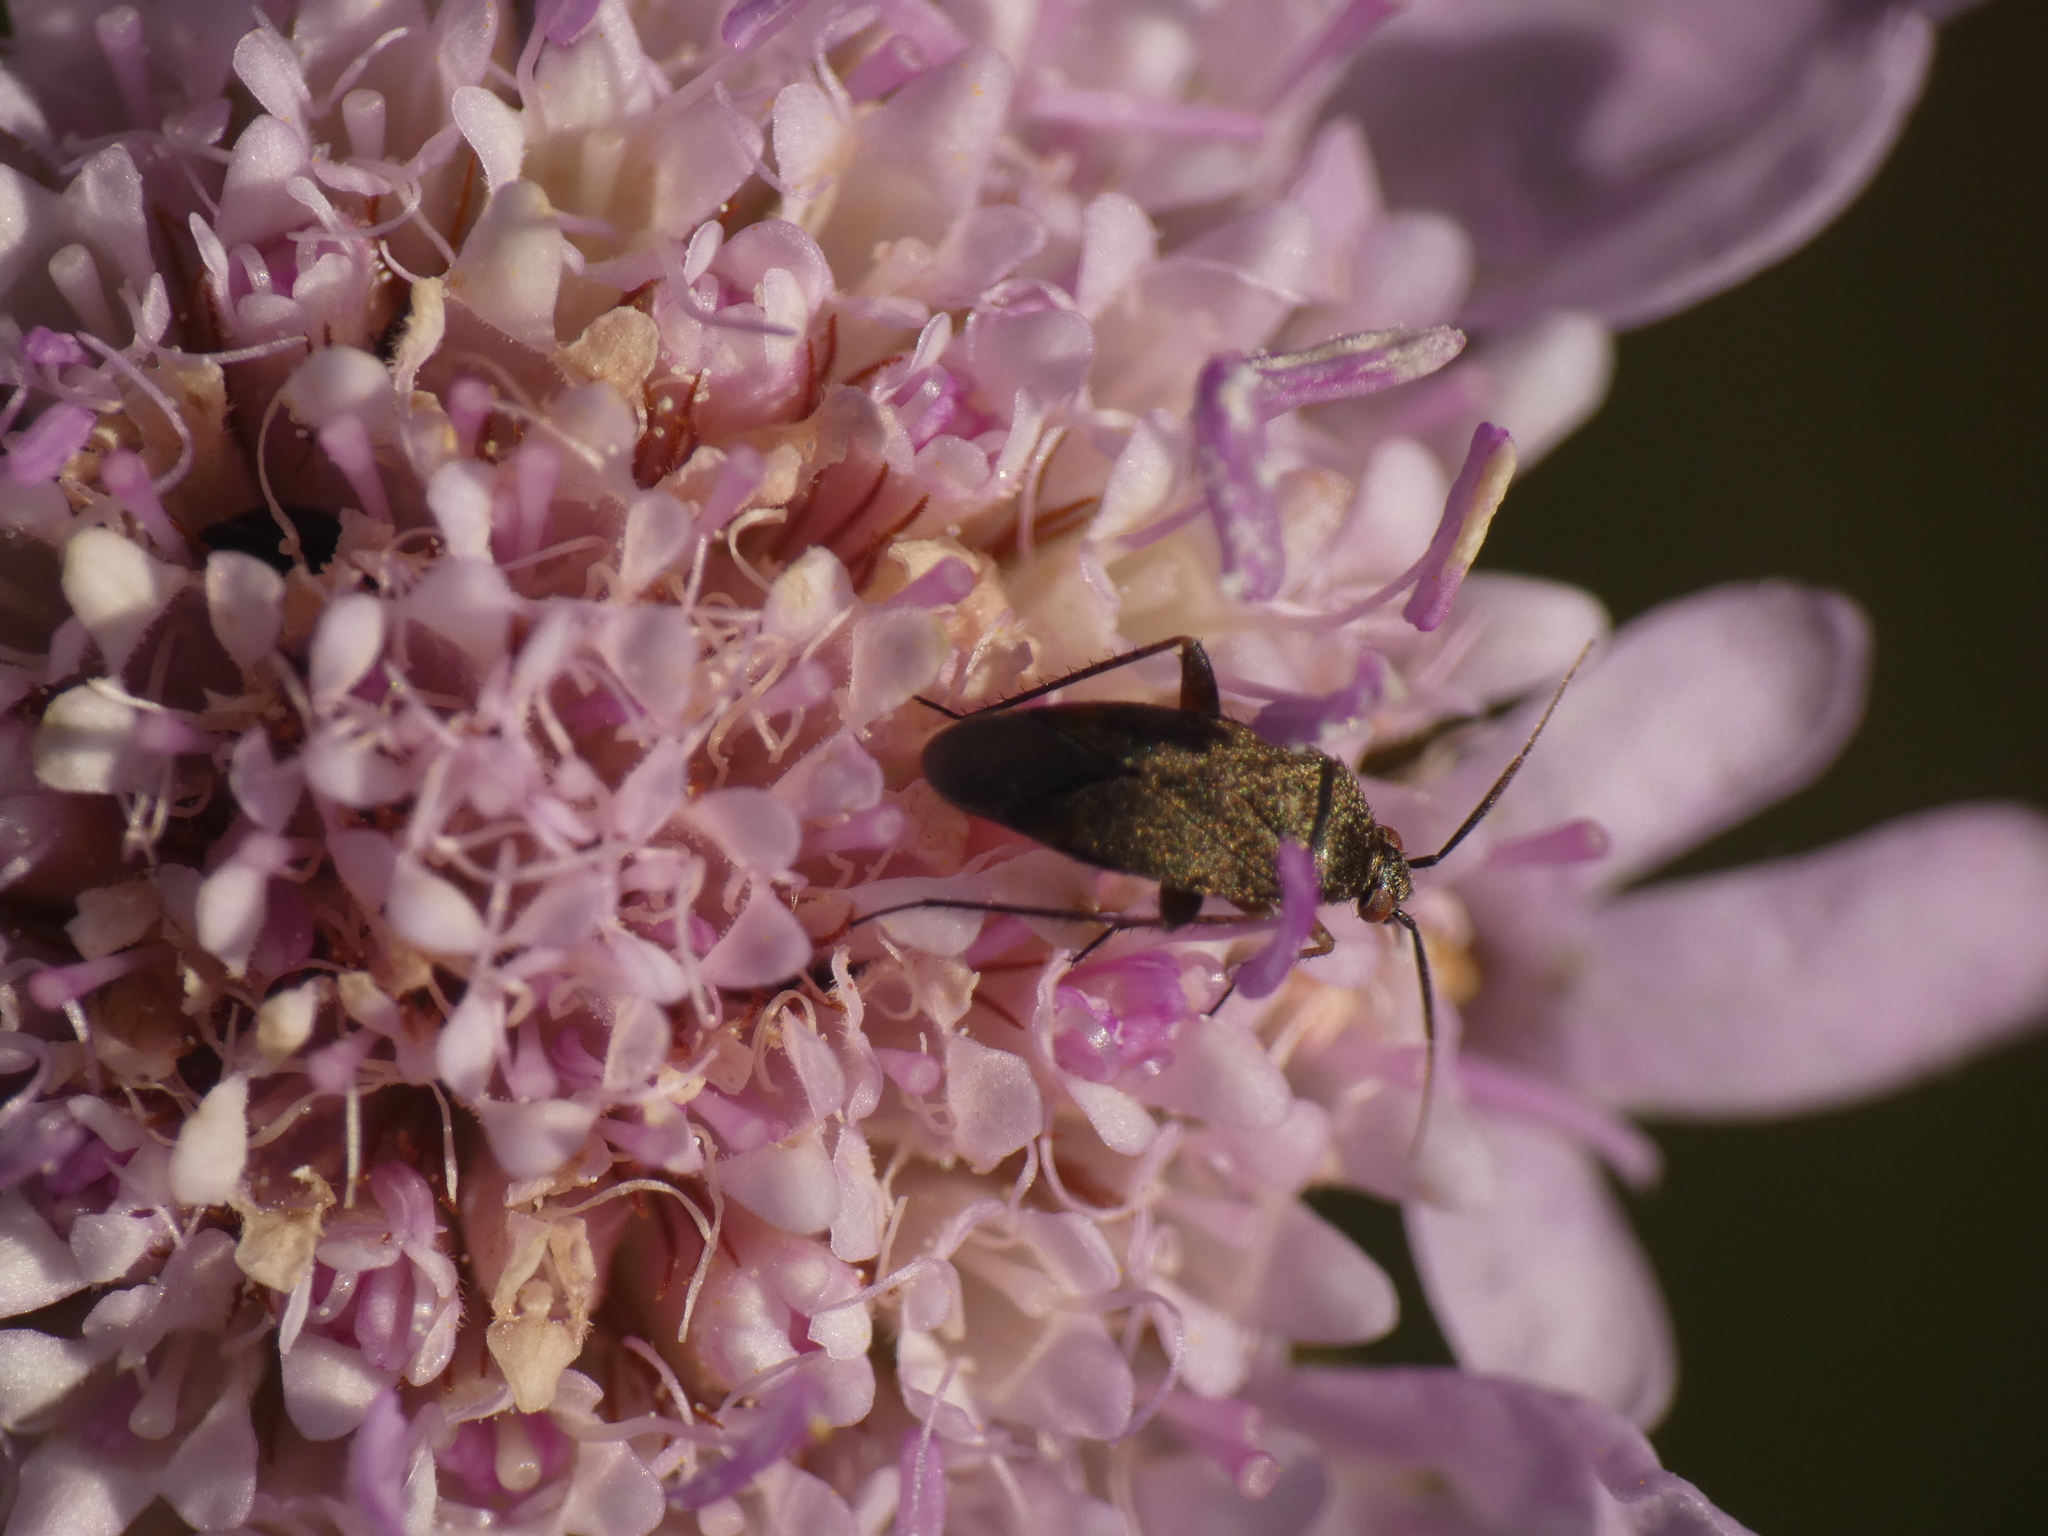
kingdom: Animalia
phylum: Arthropoda
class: Insecta
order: Hemiptera
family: Miridae
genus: Lepidargyrus
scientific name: Lepidargyrus ancorifer
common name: Plant bug
